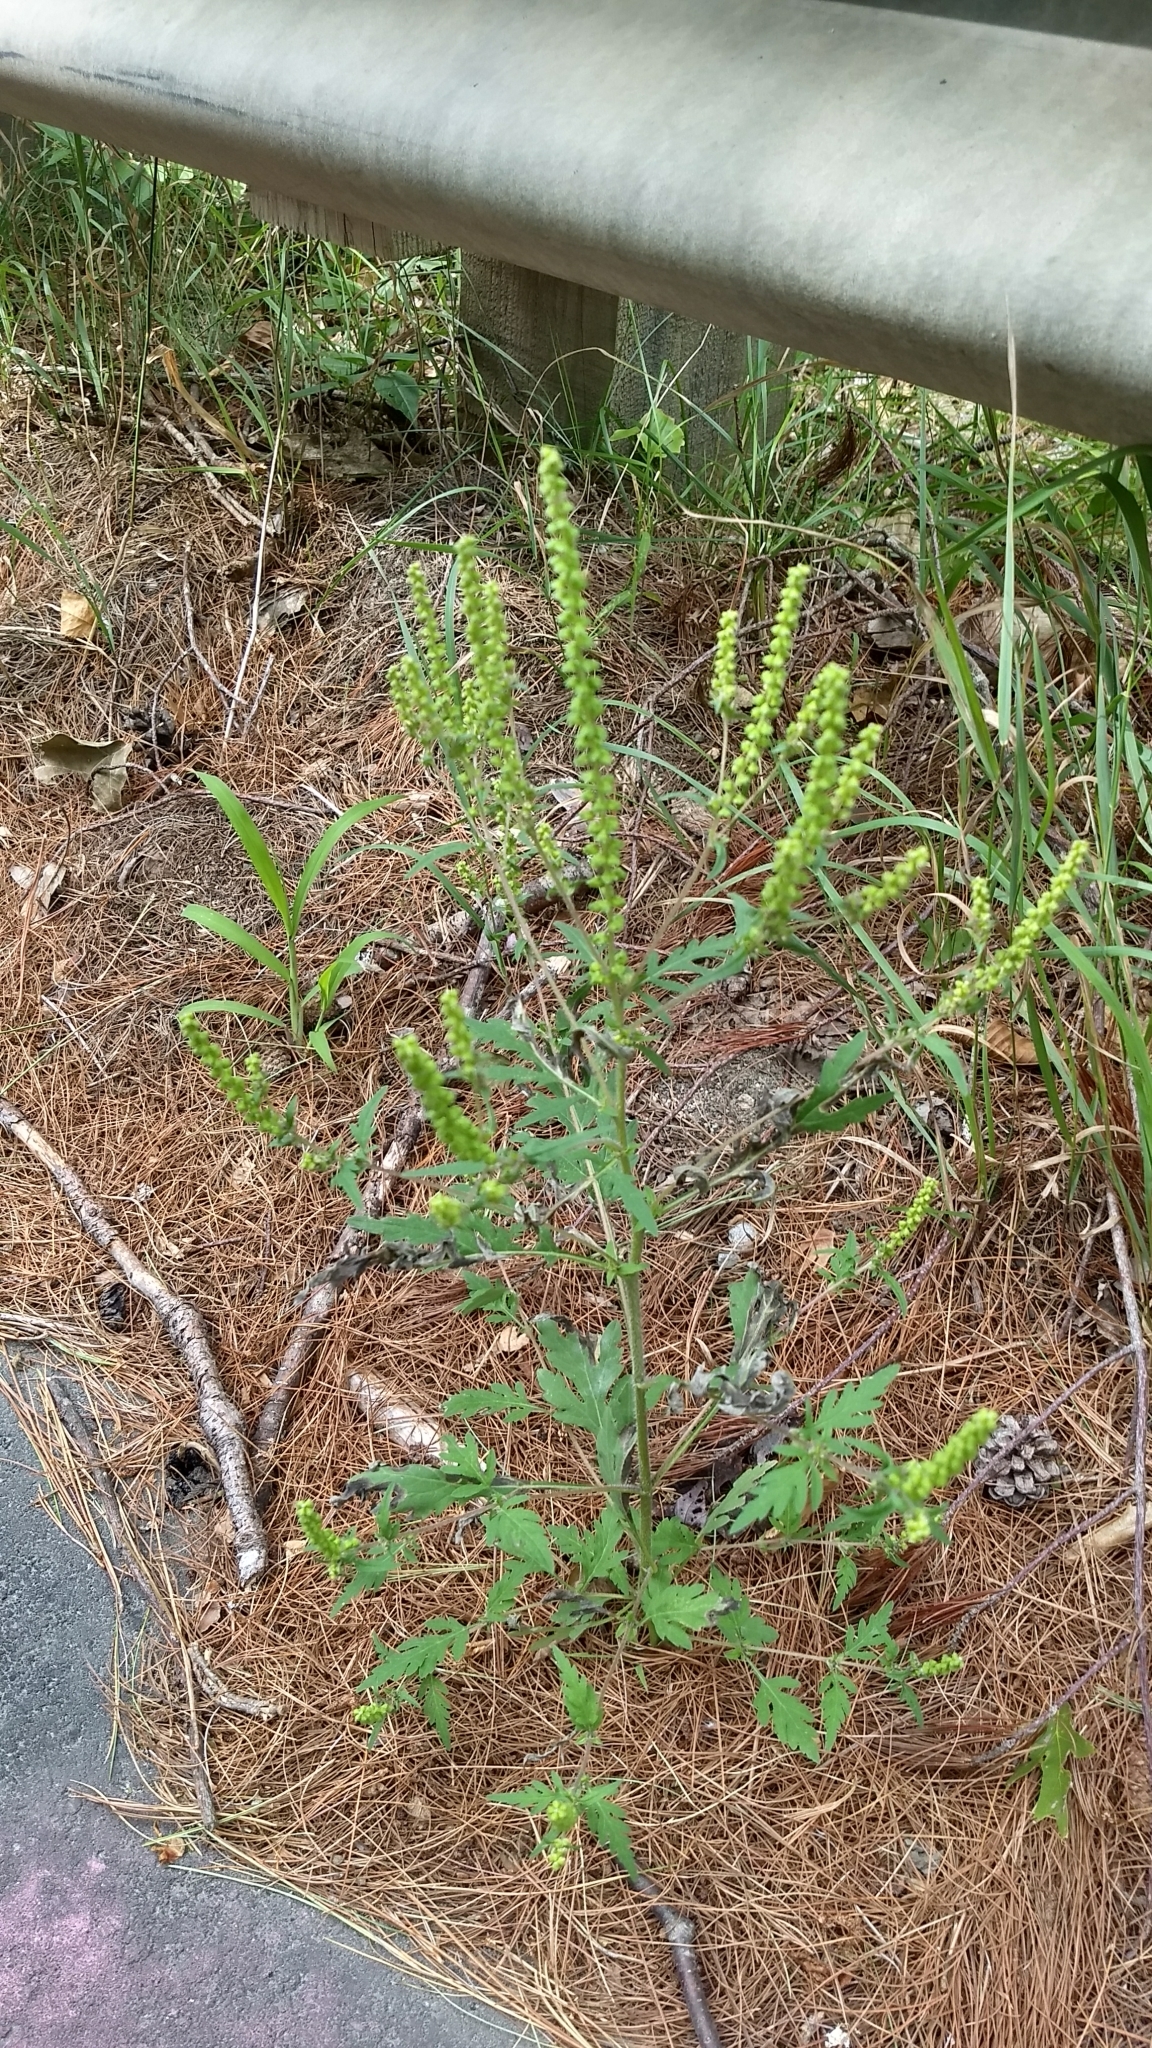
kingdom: Plantae
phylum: Tracheophyta
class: Magnoliopsida
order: Asterales
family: Asteraceae
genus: Ambrosia
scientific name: Ambrosia artemisiifolia
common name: Annual ragweed
